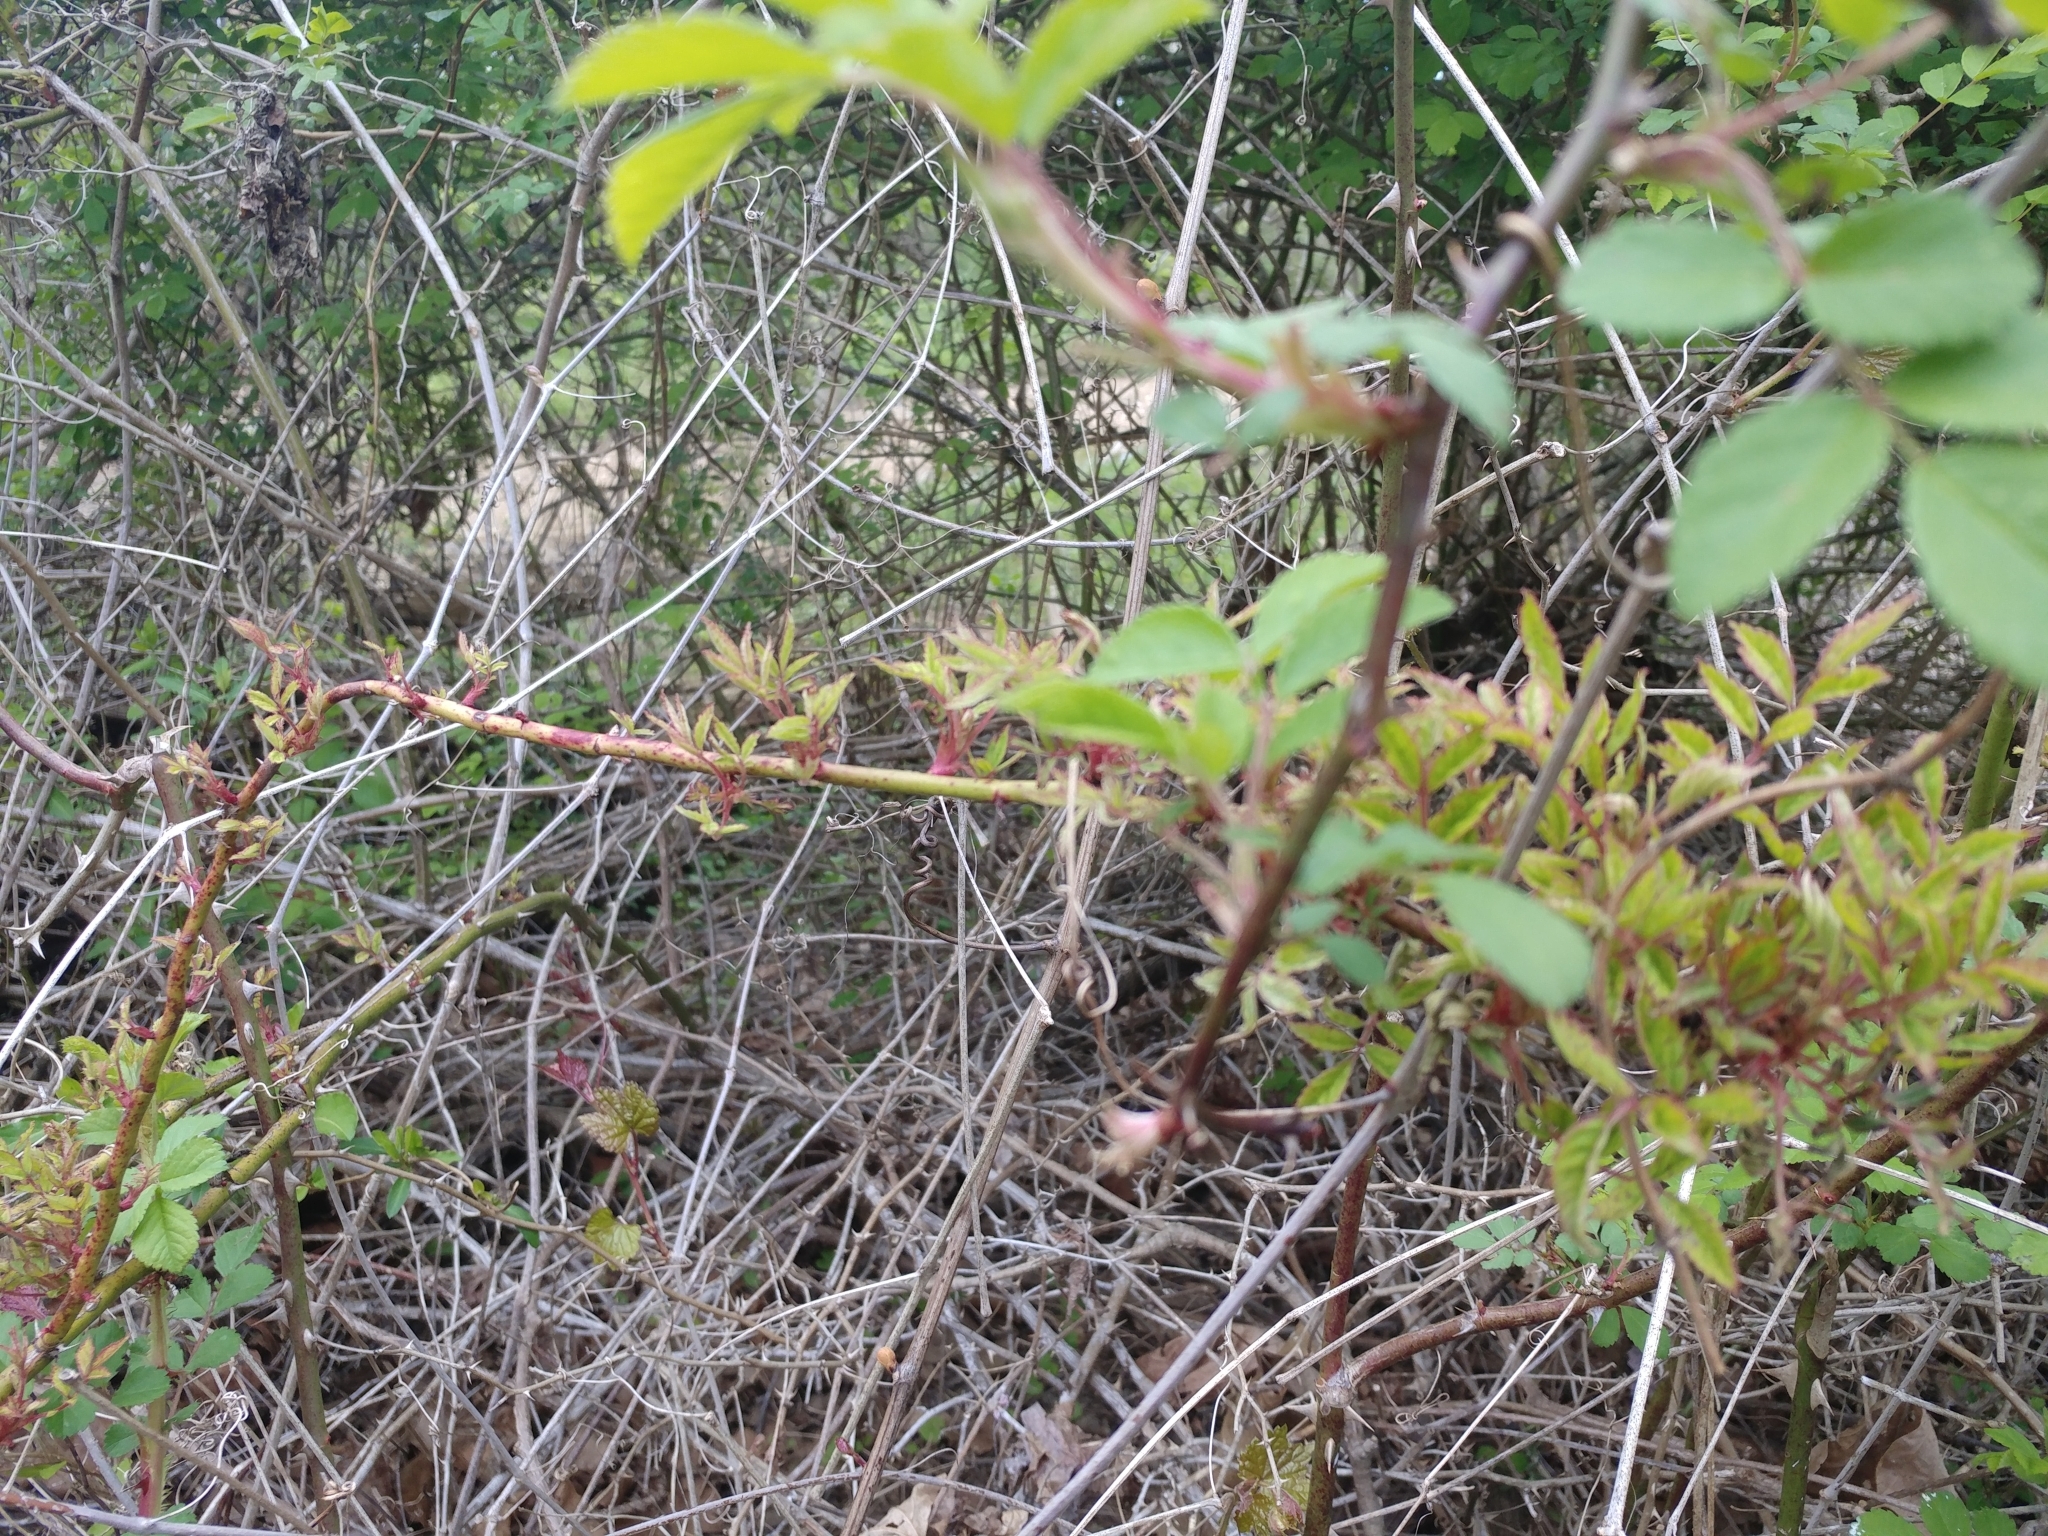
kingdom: Plantae
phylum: Tracheophyta
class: Magnoliopsida
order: Rosales
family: Rosaceae
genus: Rosa
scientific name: Rosa multiflora
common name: Multiflora rose
